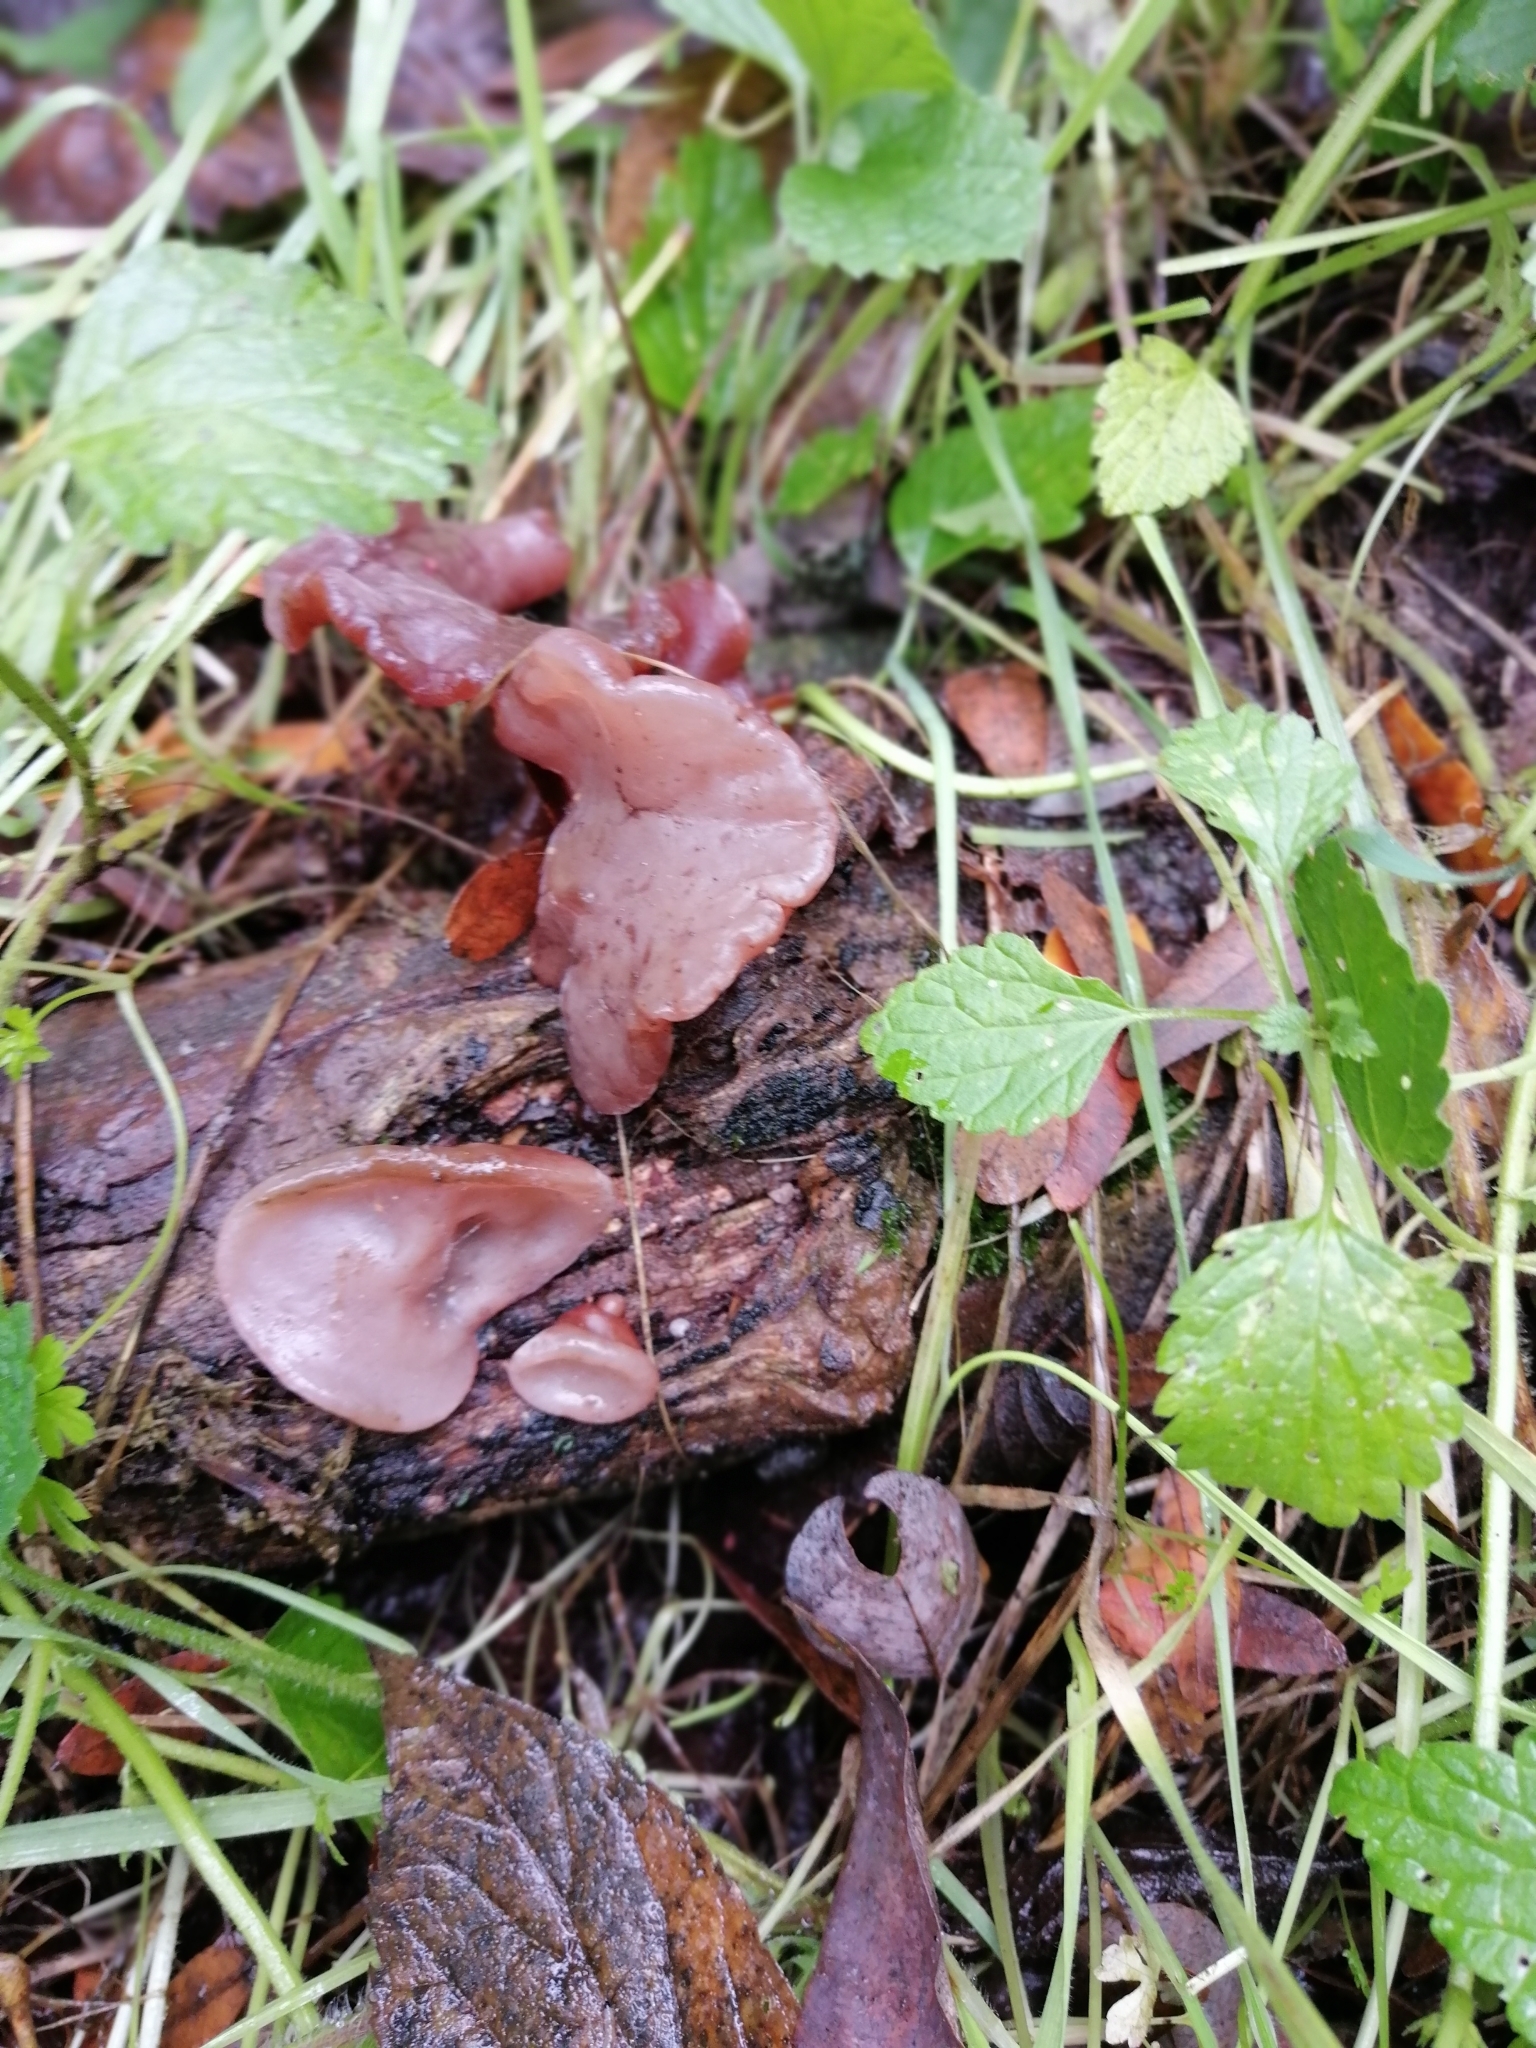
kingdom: Fungi
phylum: Basidiomycota
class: Agaricomycetes
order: Auriculariales
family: Auriculariaceae
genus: Auricularia
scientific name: Auricularia auricula-judae
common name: Jelly ear
